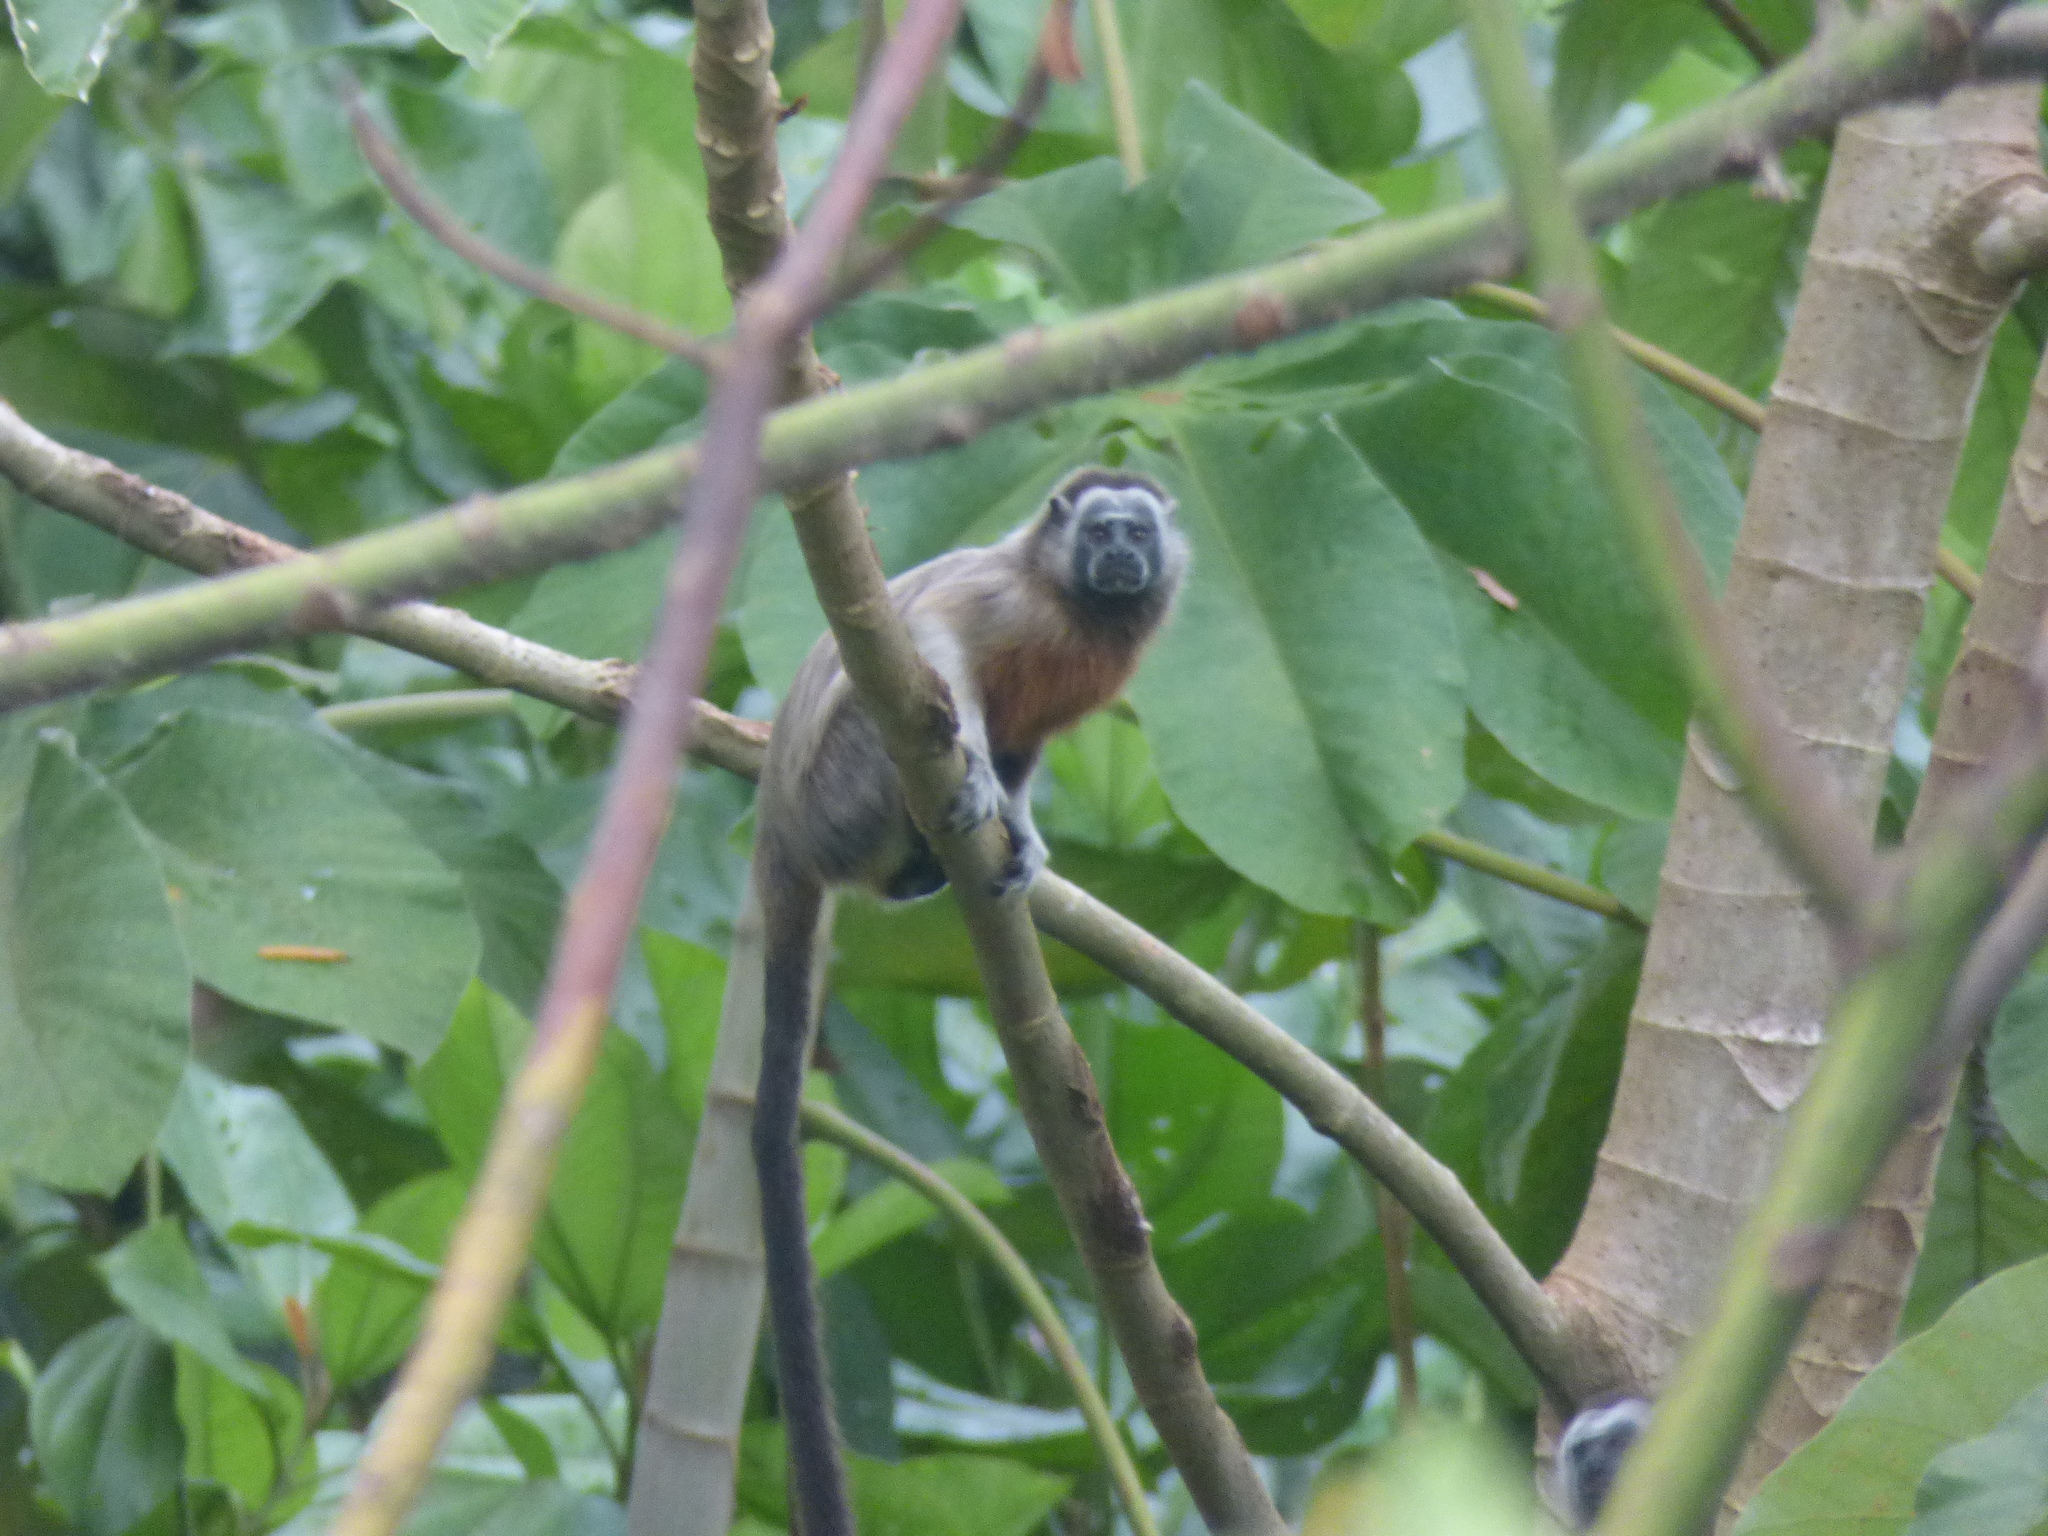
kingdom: Animalia
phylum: Chordata
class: Mammalia
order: Primates
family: Callitrichidae
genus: Saguinus
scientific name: Saguinus leucopus
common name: White-footed tamarin
